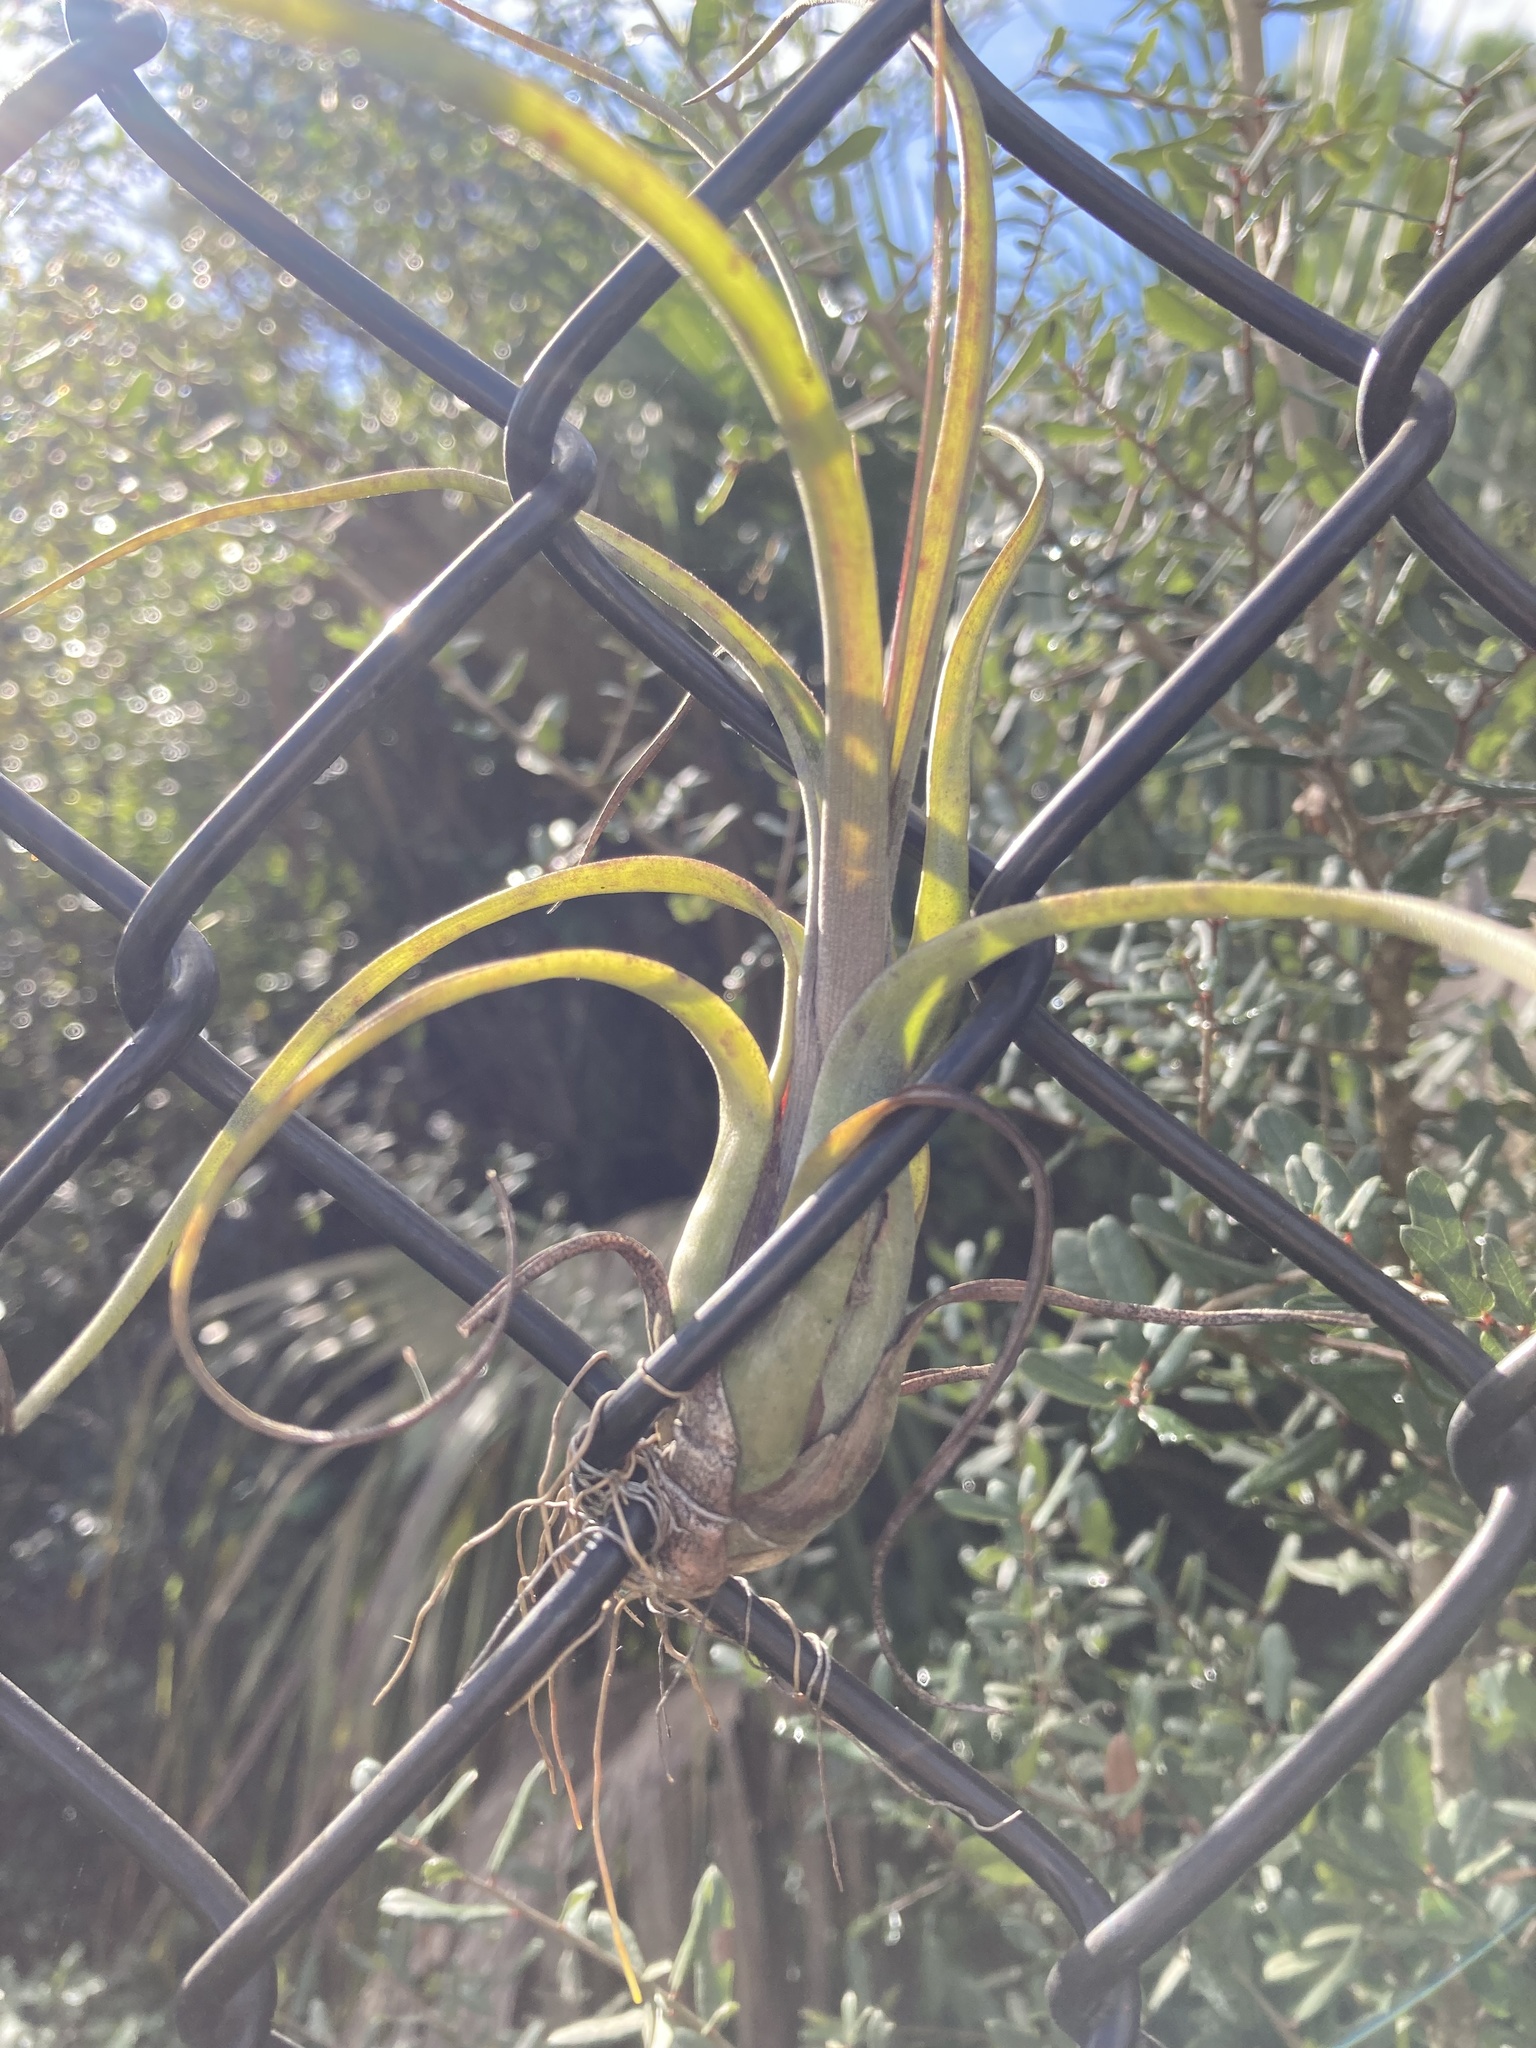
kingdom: Plantae
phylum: Tracheophyta
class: Liliopsida
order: Poales
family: Bromeliaceae
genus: Tillandsia
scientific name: Tillandsia balbisiana
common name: Northern needleleaf
